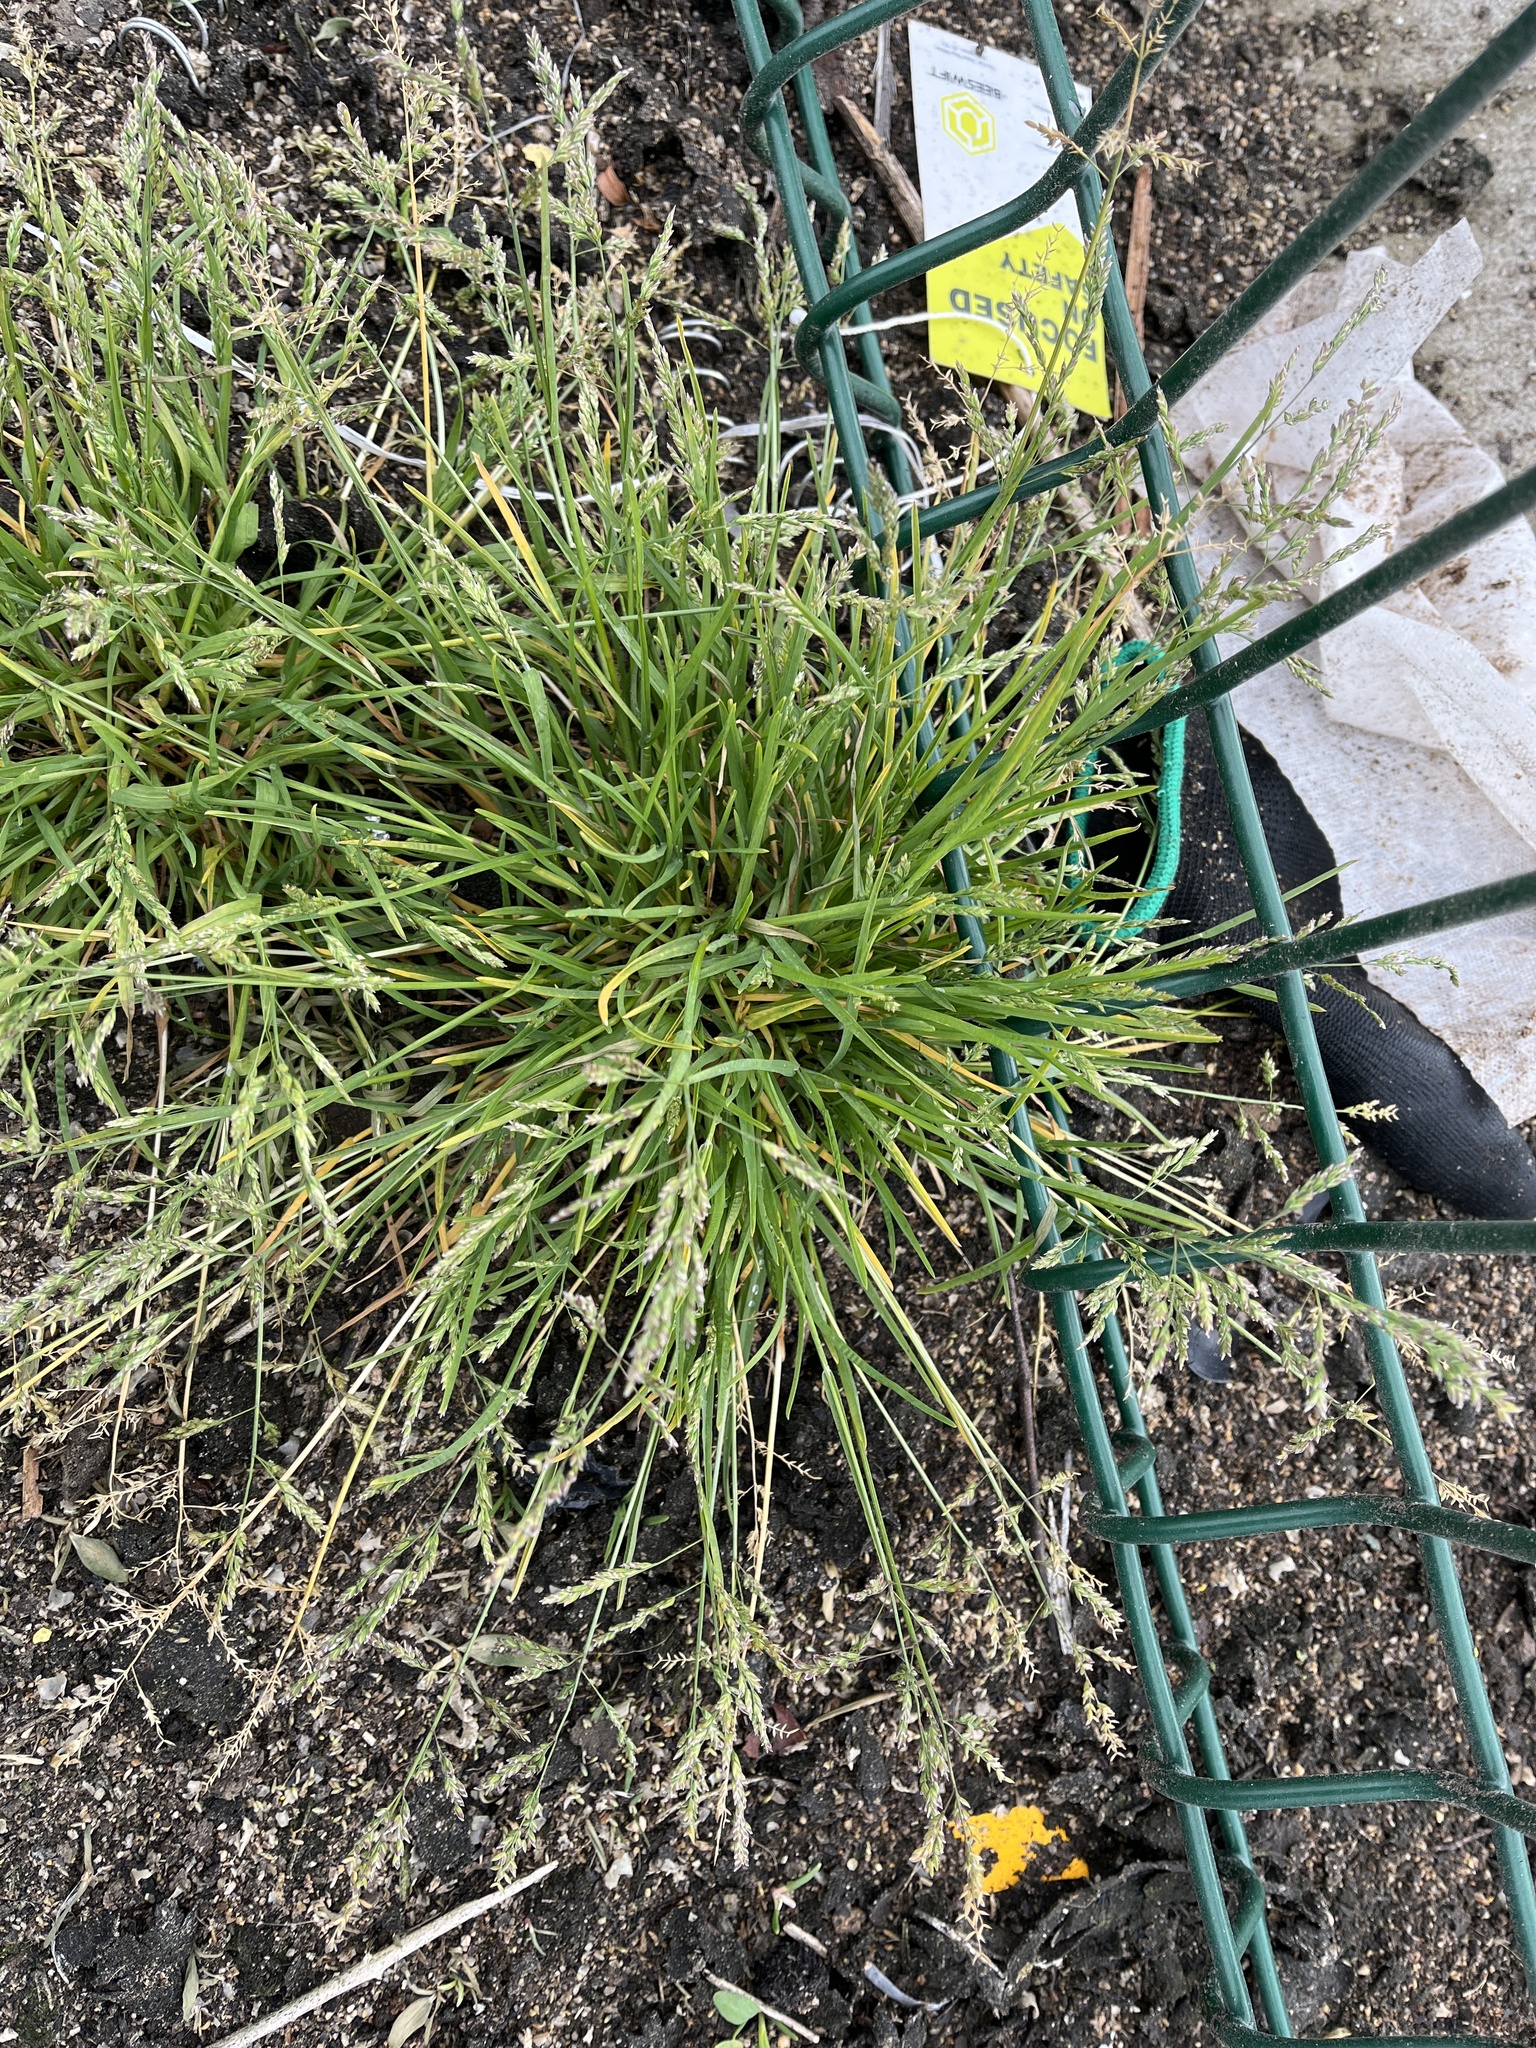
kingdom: Plantae
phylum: Tracheophyta
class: Liliopsida
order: Poales
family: Poaceae
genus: Poa
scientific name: Poa annua
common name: Annual bluegrass
